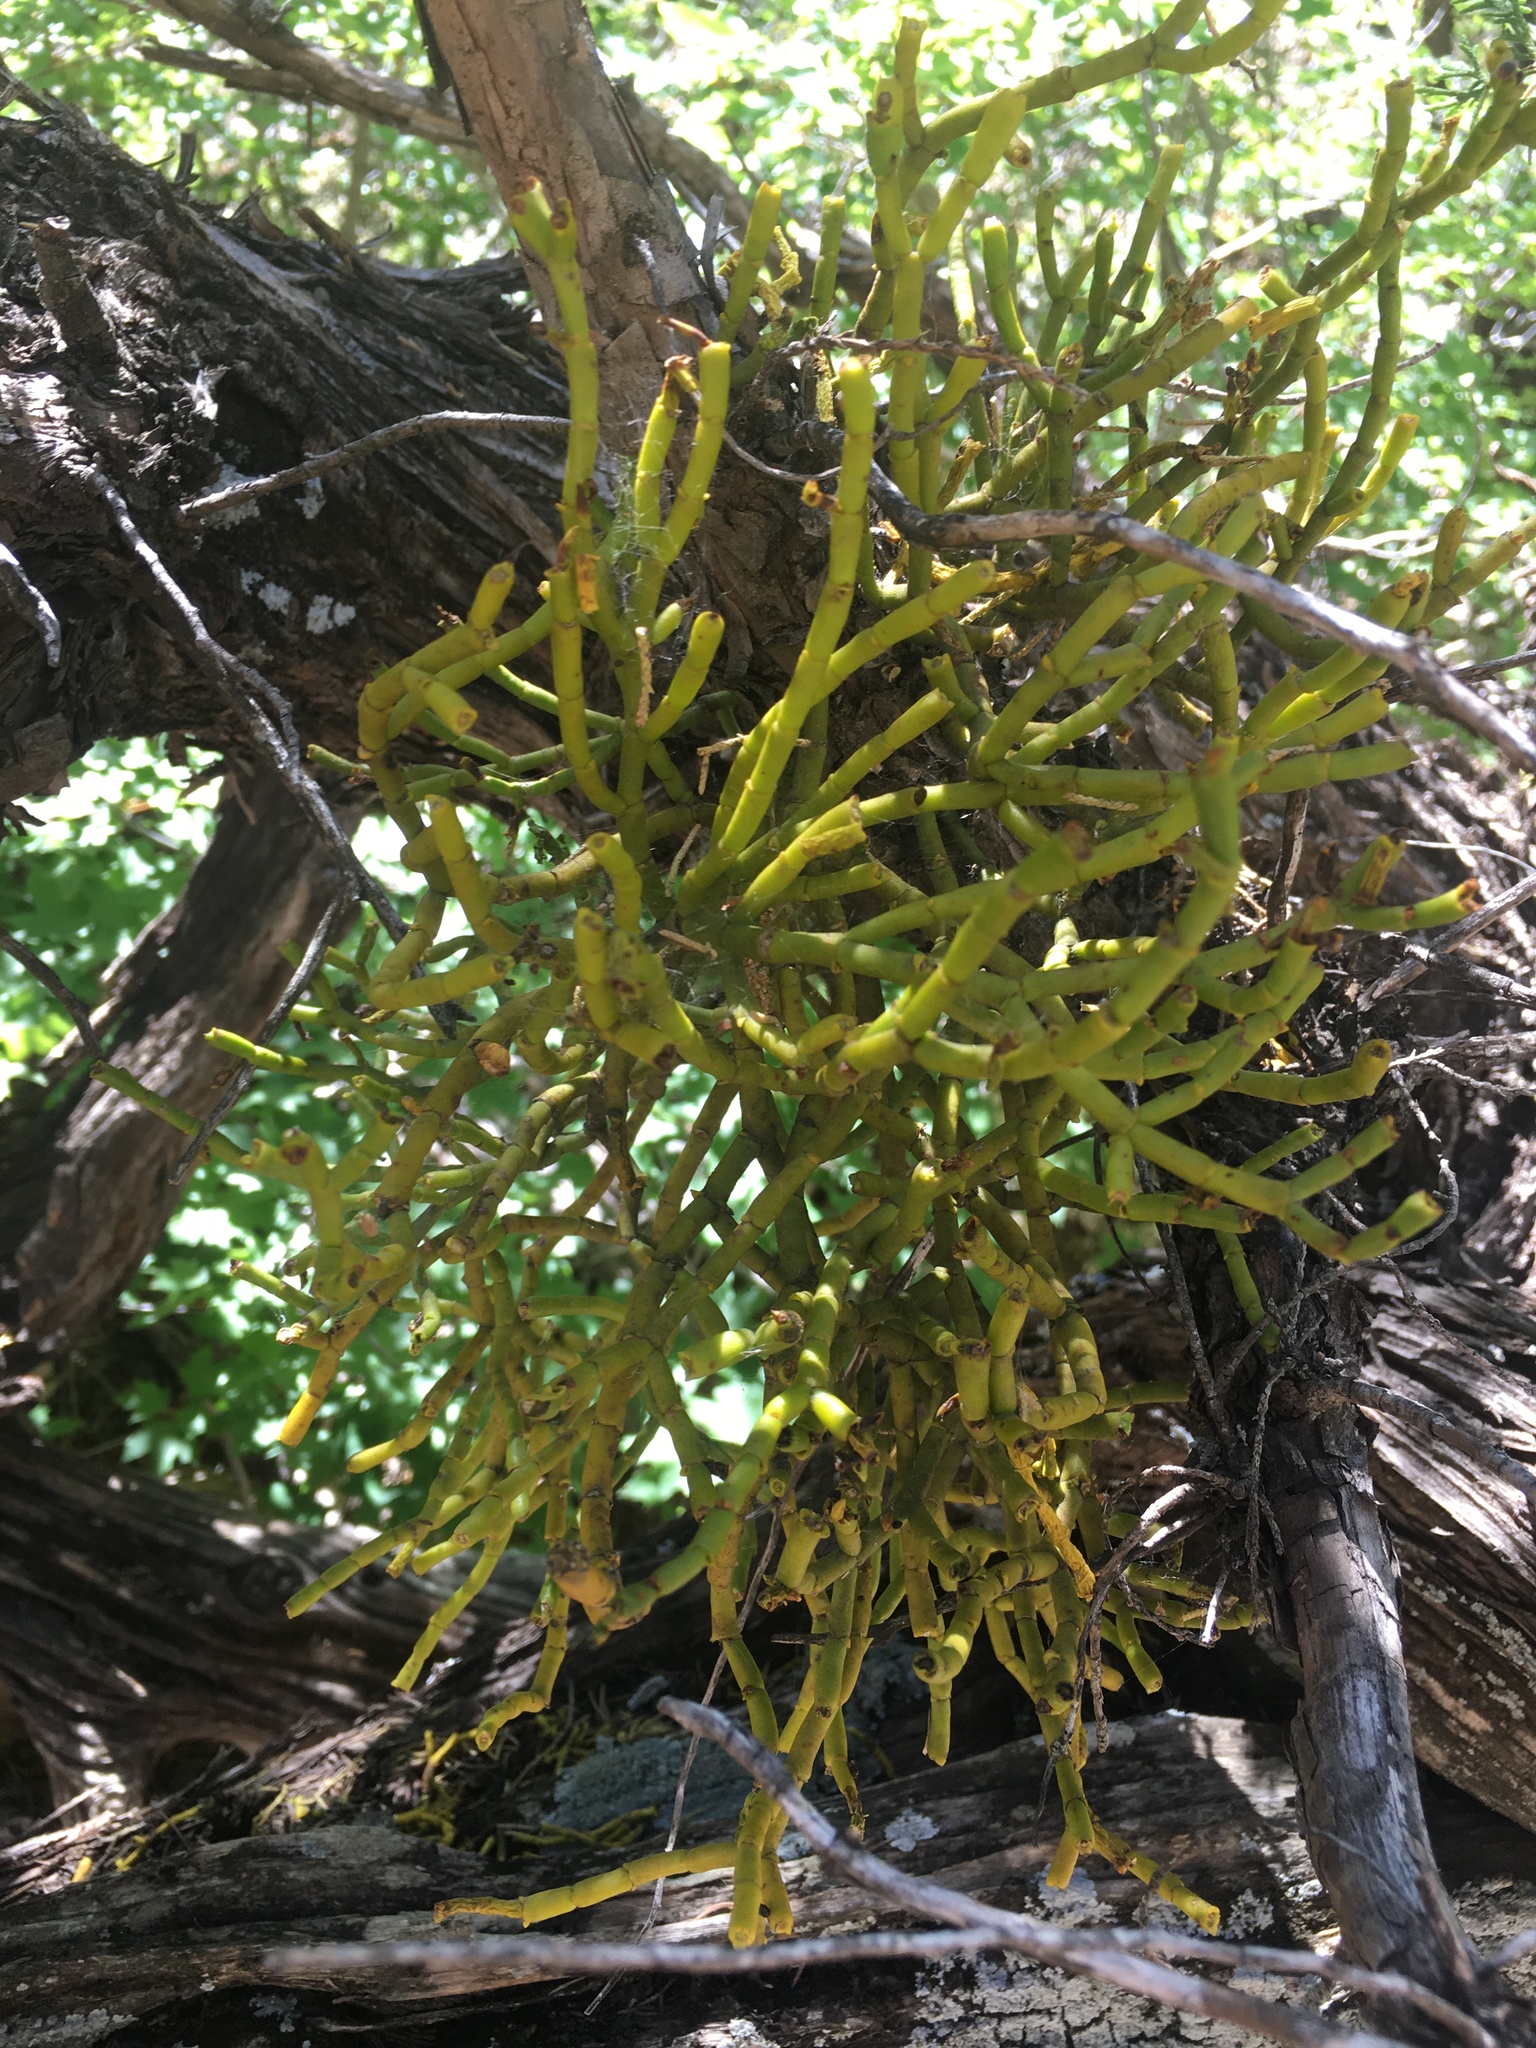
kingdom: Plantae
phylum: Tracheophyta
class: Magnoliopsida
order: Santalales
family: Viscaceae
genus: Phoradendron
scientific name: Phoradendron juniperinum
